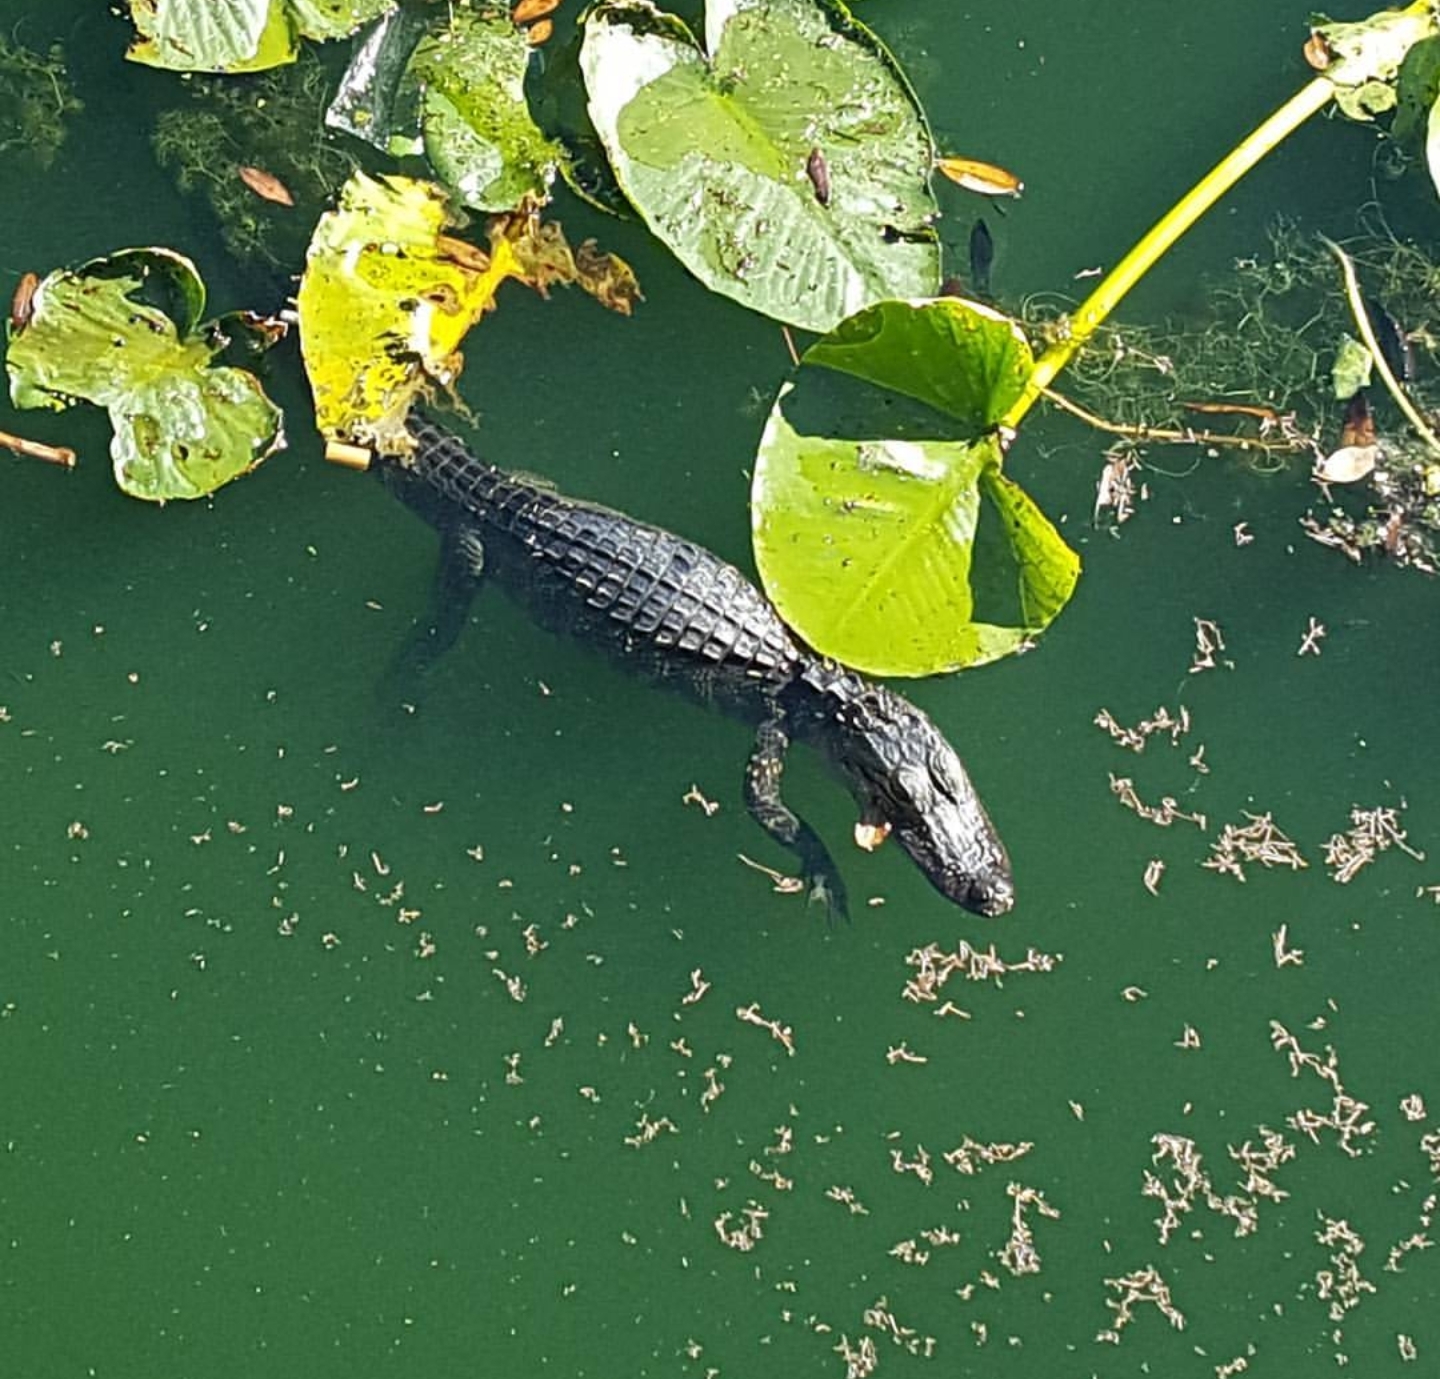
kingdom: Animalia
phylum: Chordata
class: Crocodylia
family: Alligatoridae
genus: Alligator
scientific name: Alligator mississippiensis
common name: American alligator
